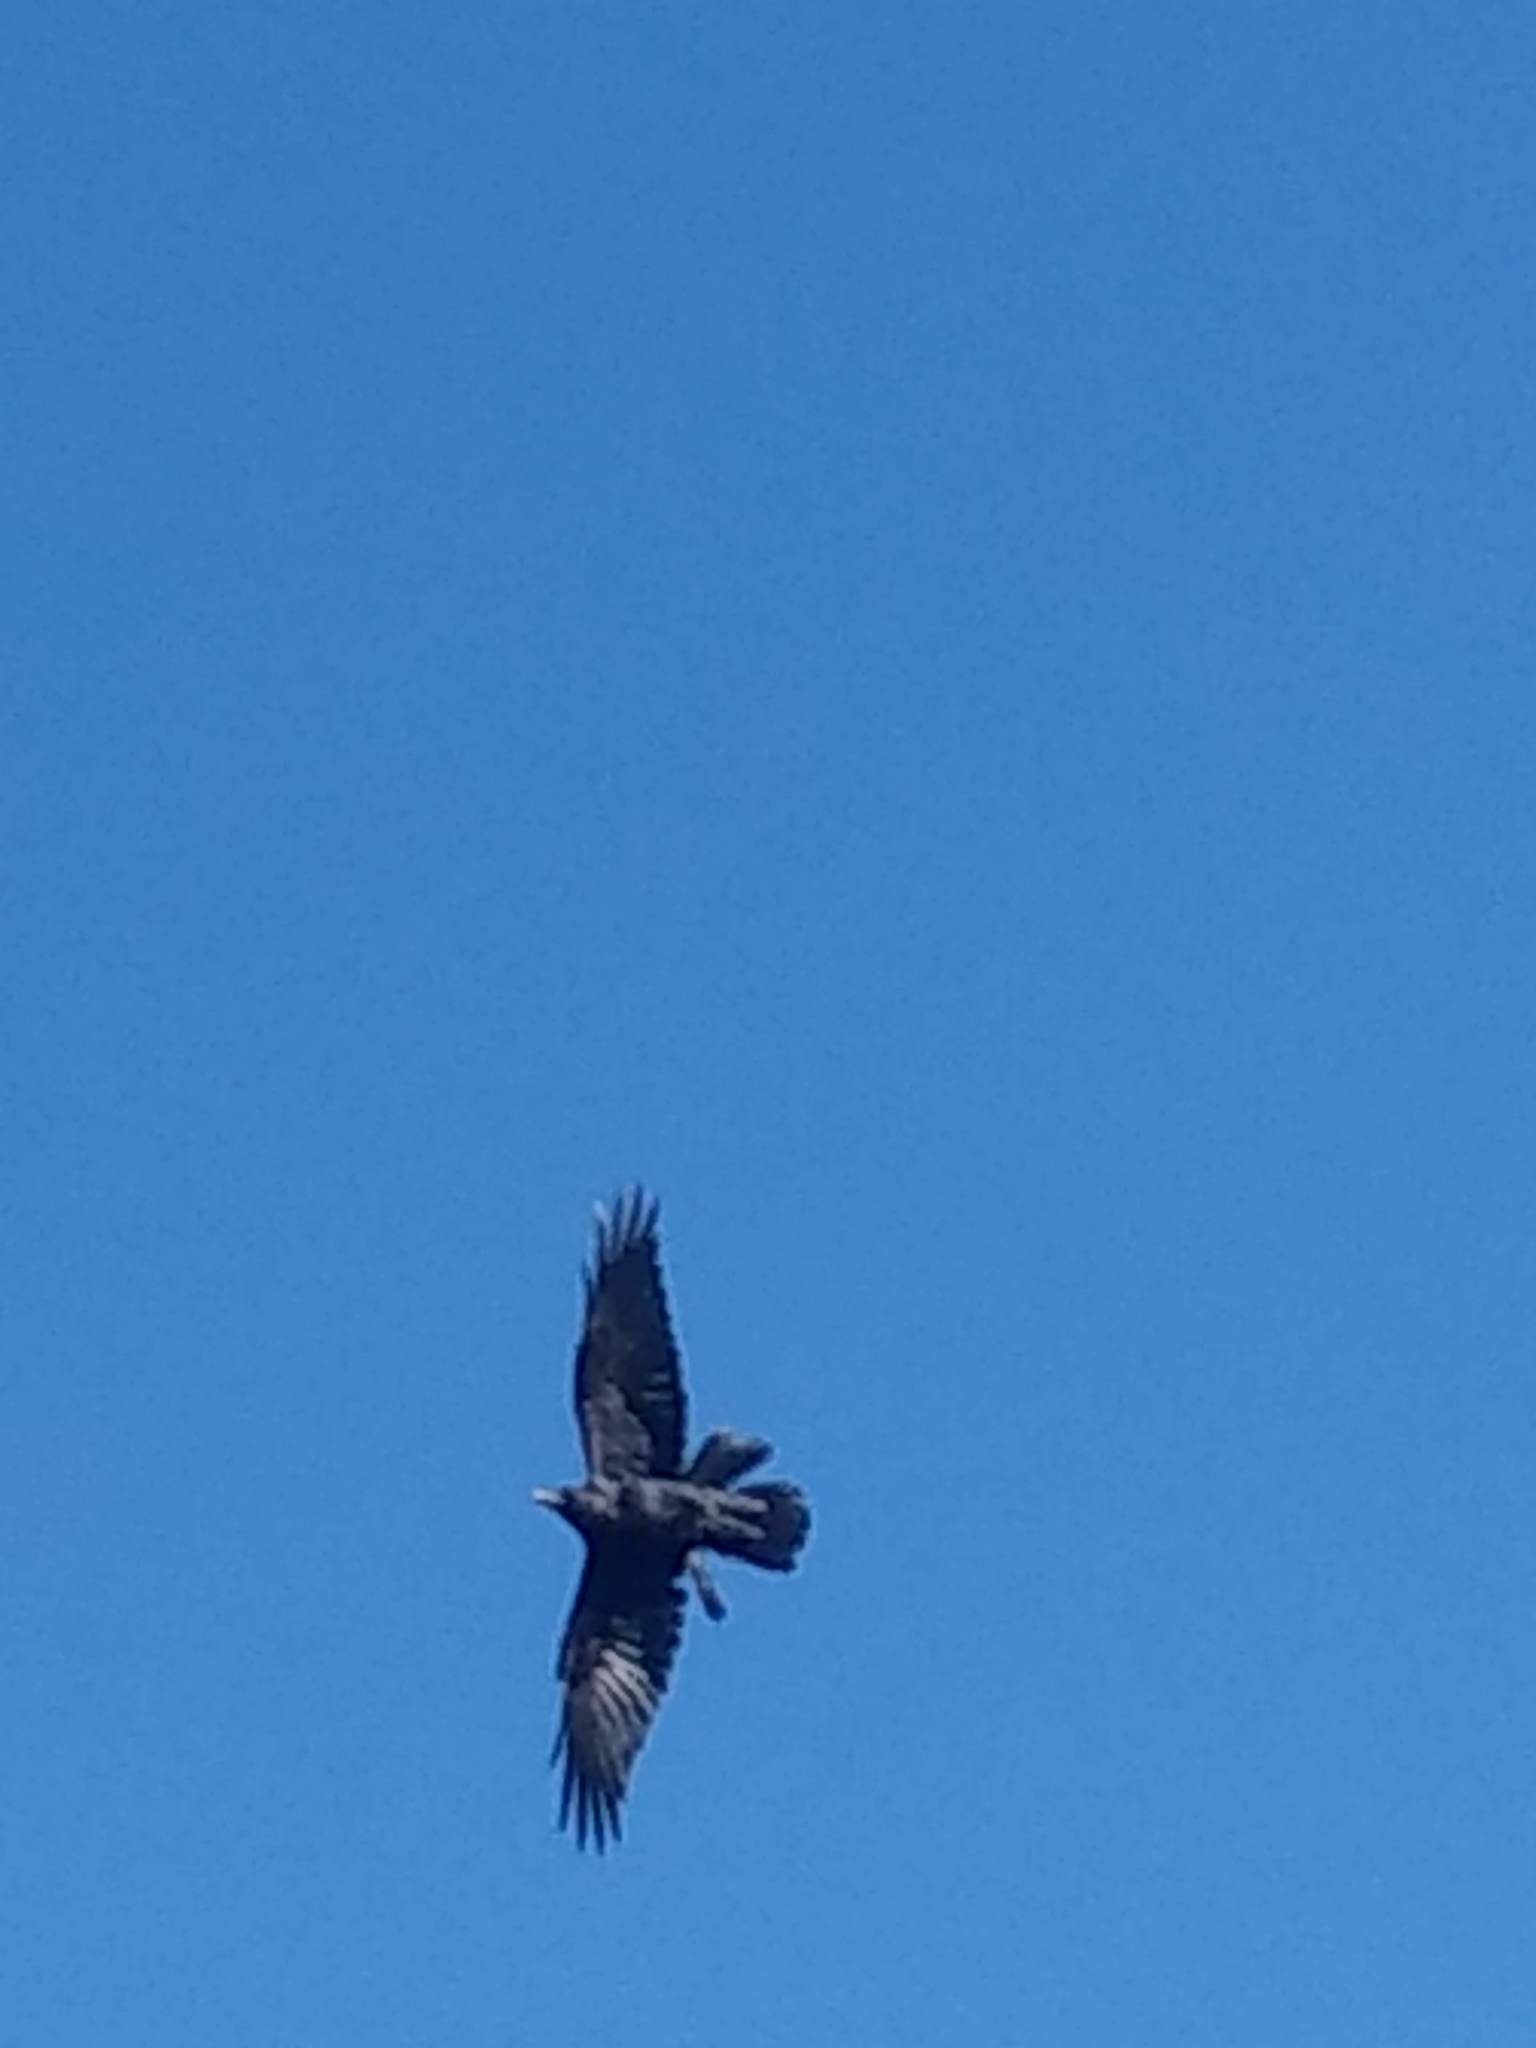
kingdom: Animalia
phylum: Chordata
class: Aves
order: Passeriformes
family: Corvidae
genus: Corvus
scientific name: Corvus corax
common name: Common raven
